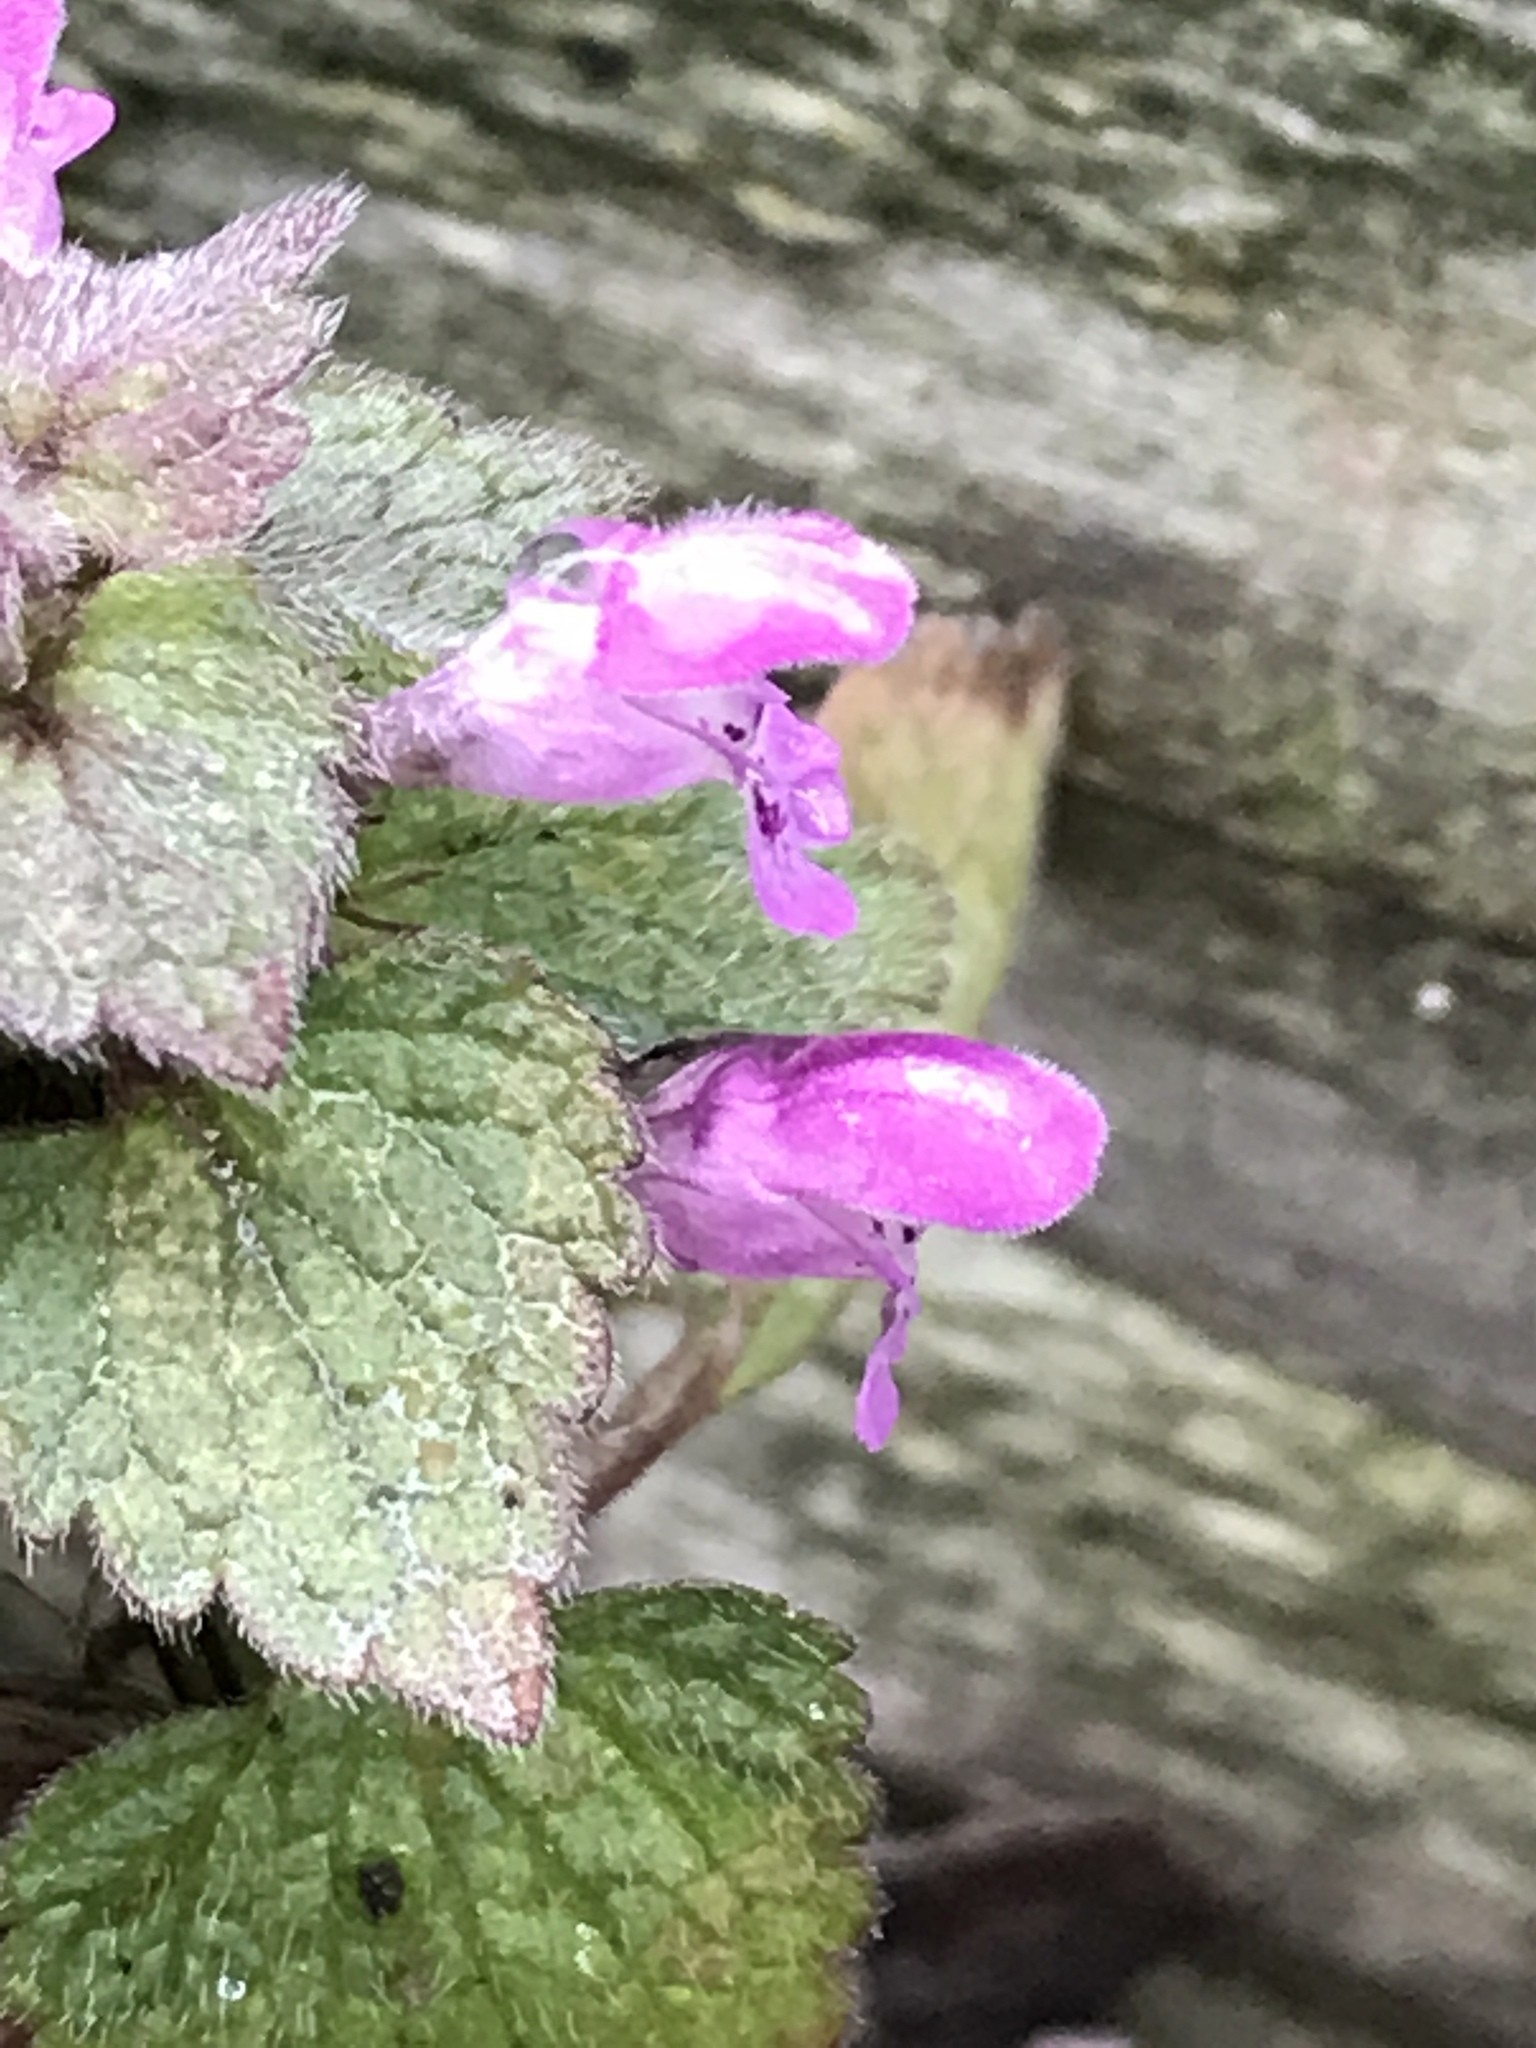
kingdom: Plantae
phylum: Tracheophyta
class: Magnoliopsida
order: Lamiales
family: Lamiaceae
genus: Lamium
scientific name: Lamium purpureum
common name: Red dead-nettle
